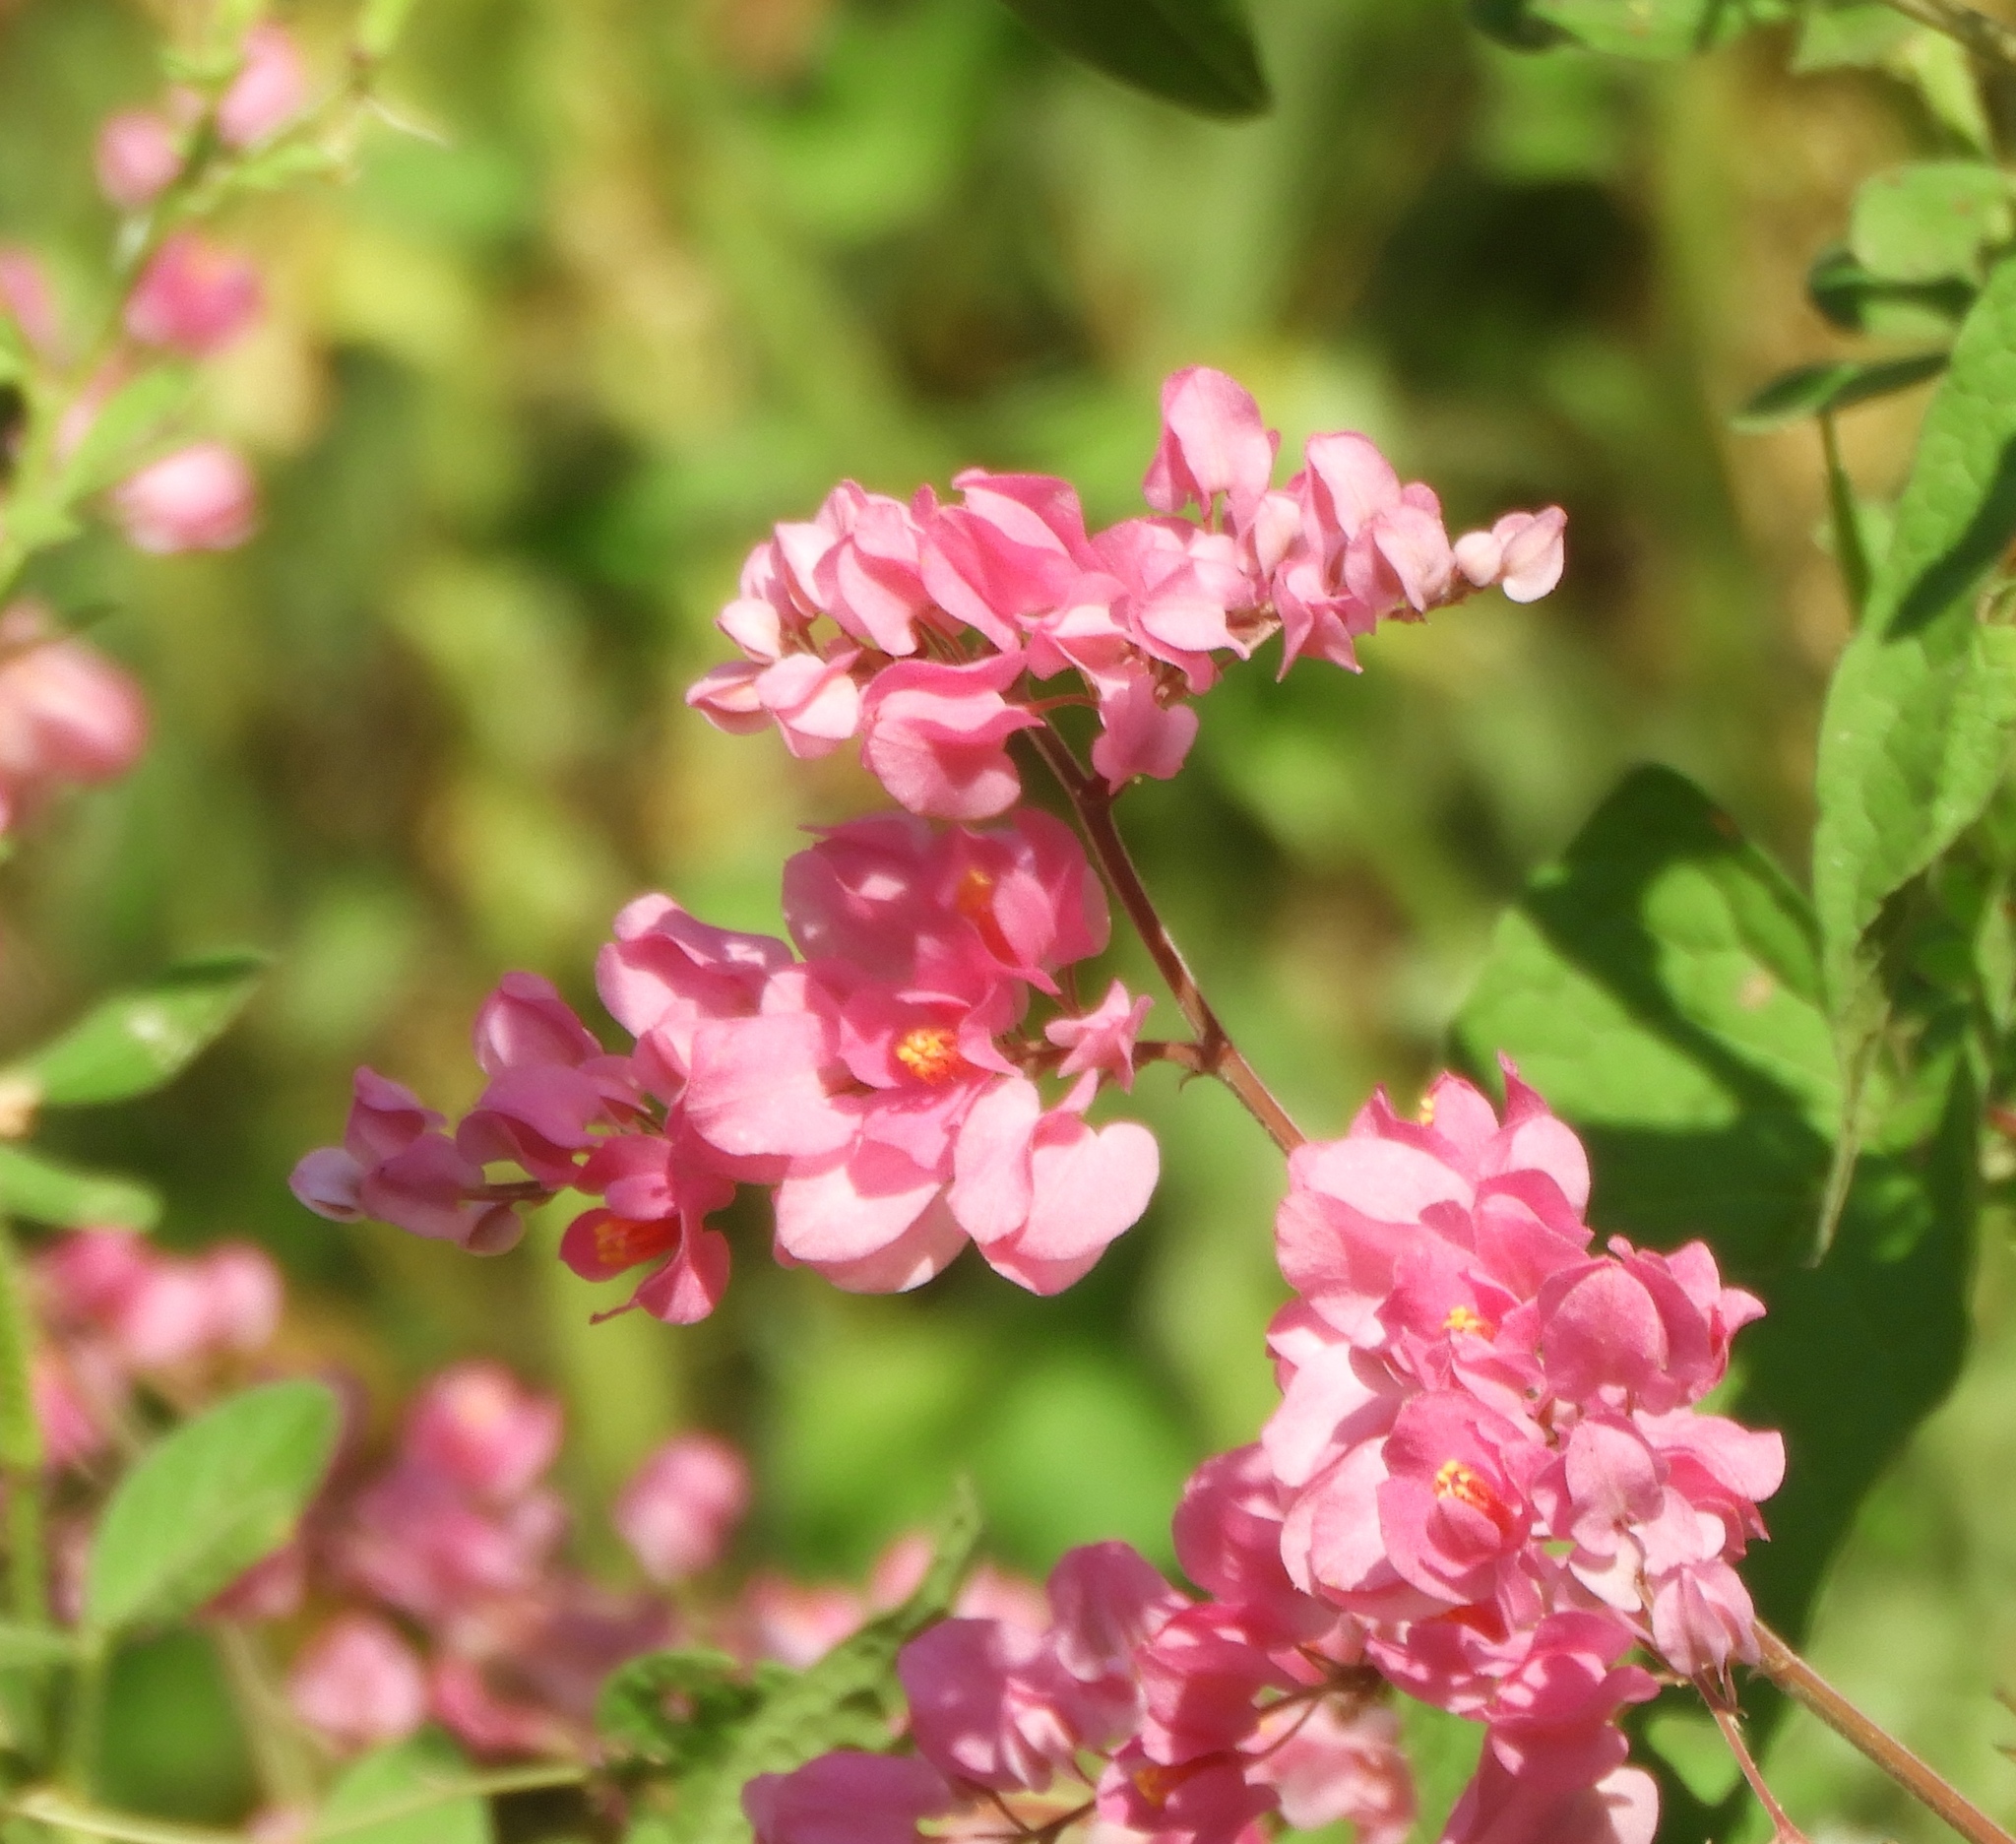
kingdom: Plantae
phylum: Tracheophyta
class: Magnoliopsida
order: Caryophyllales
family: Polygonaceae
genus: Antigonon
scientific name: Antigonon leptopus
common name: Coral vine
